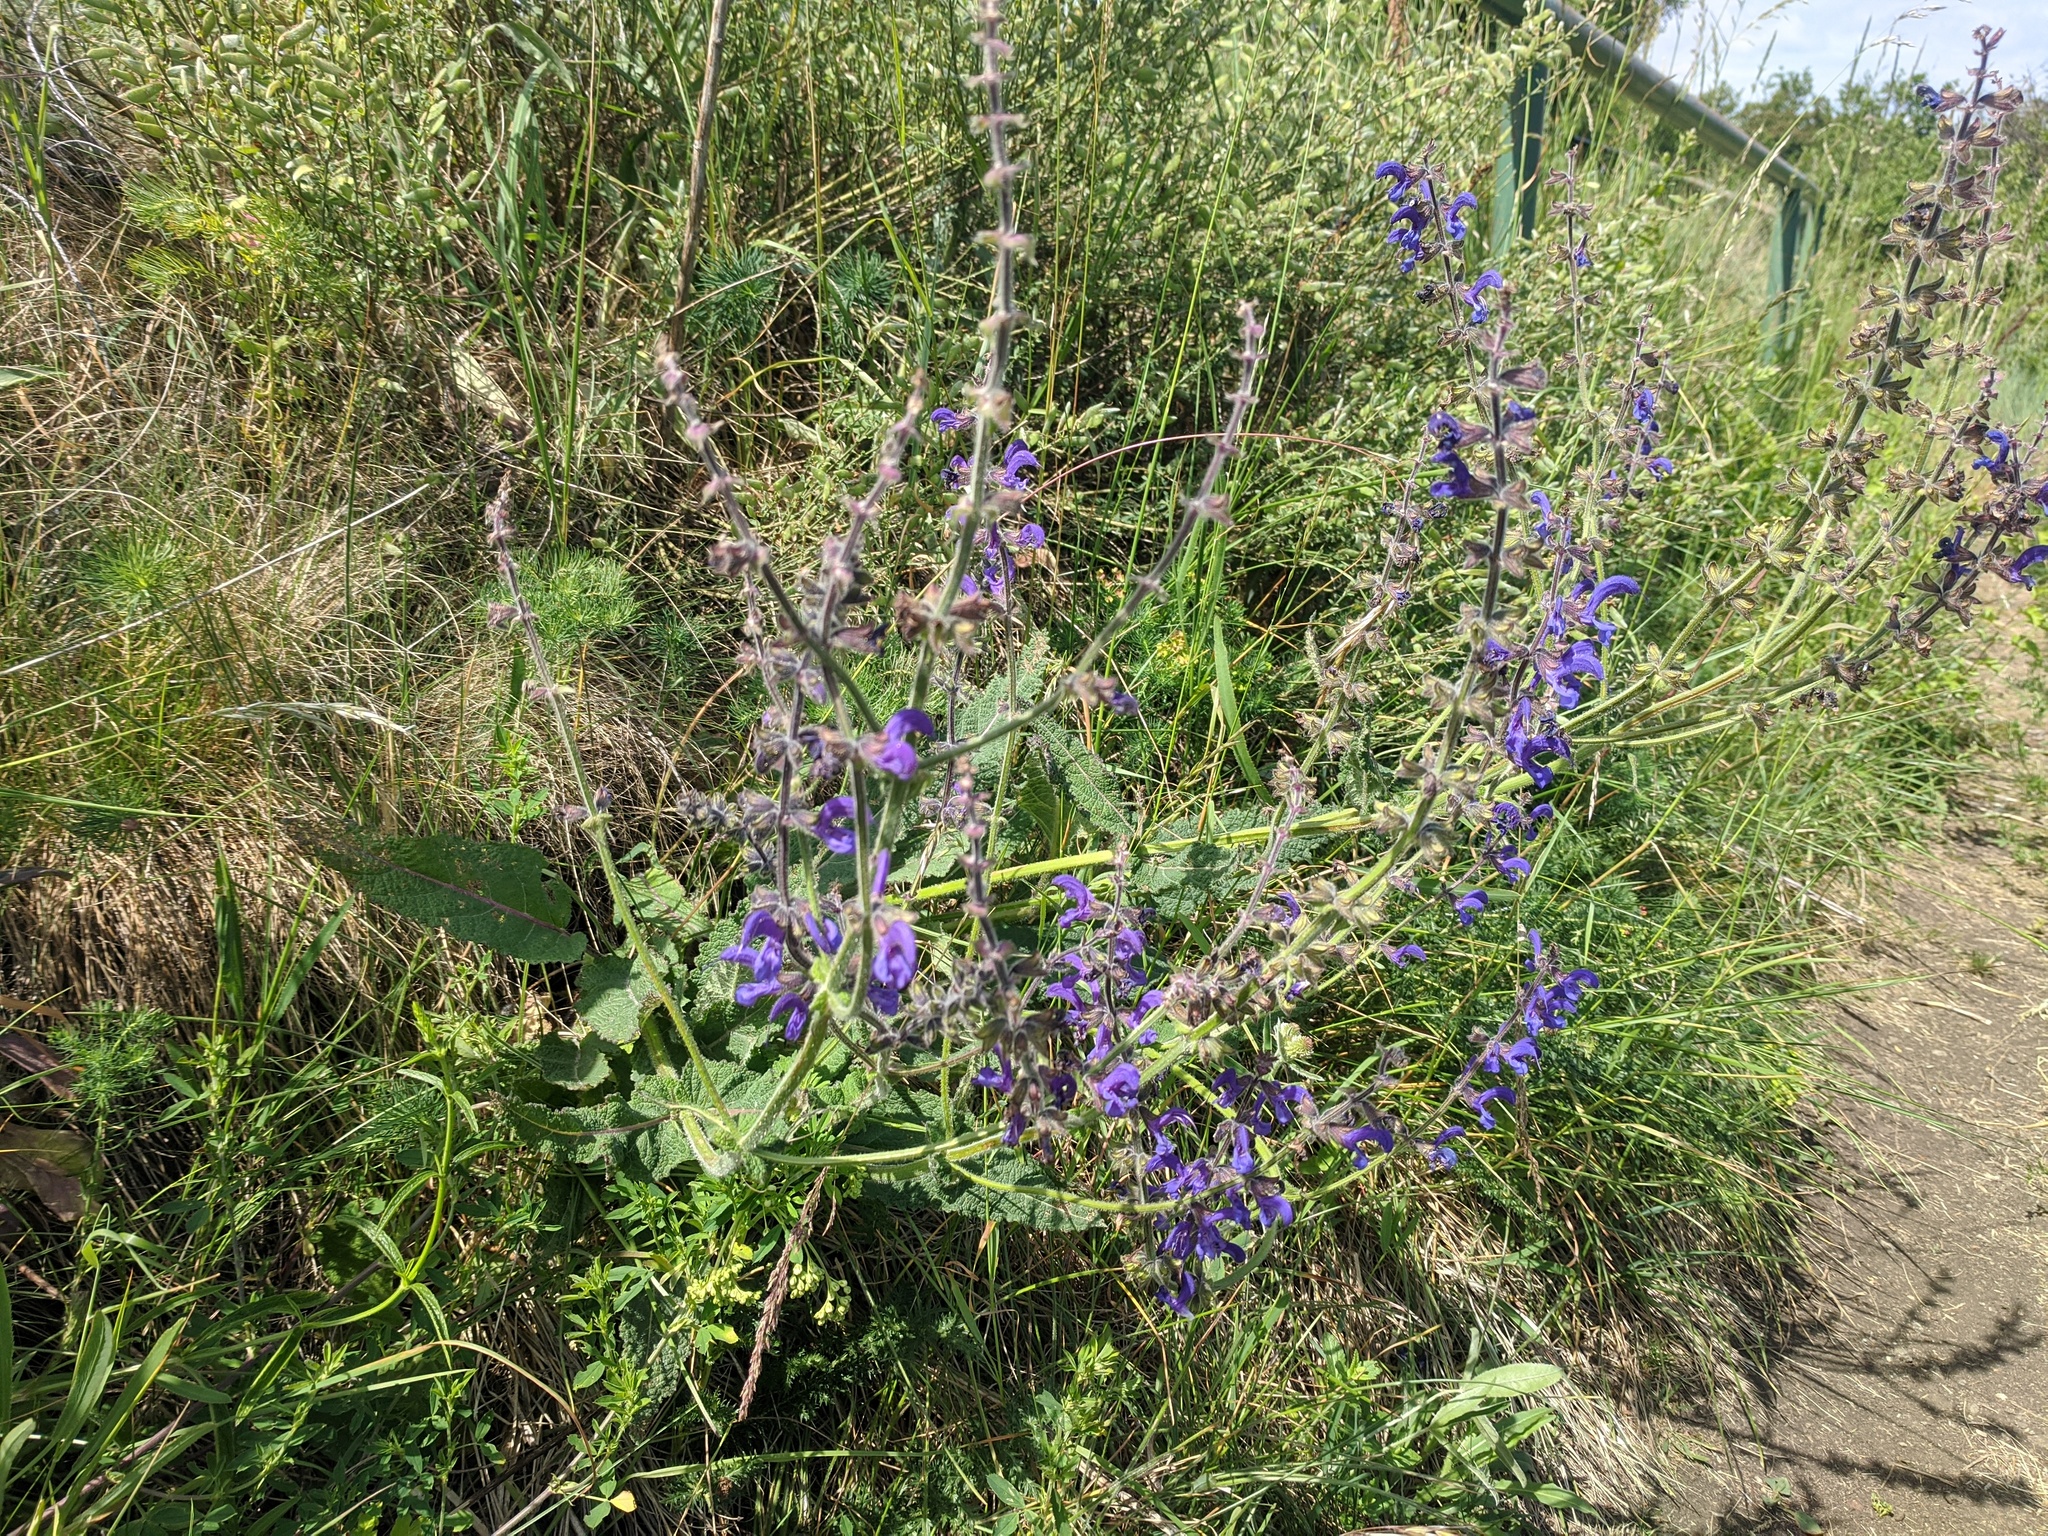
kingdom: Plantae
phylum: Tracheophyta
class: Magnoliopsida
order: Lamiales
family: Lamiaceae
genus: Salvia
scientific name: Salvia pratensis
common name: Meadow sage
